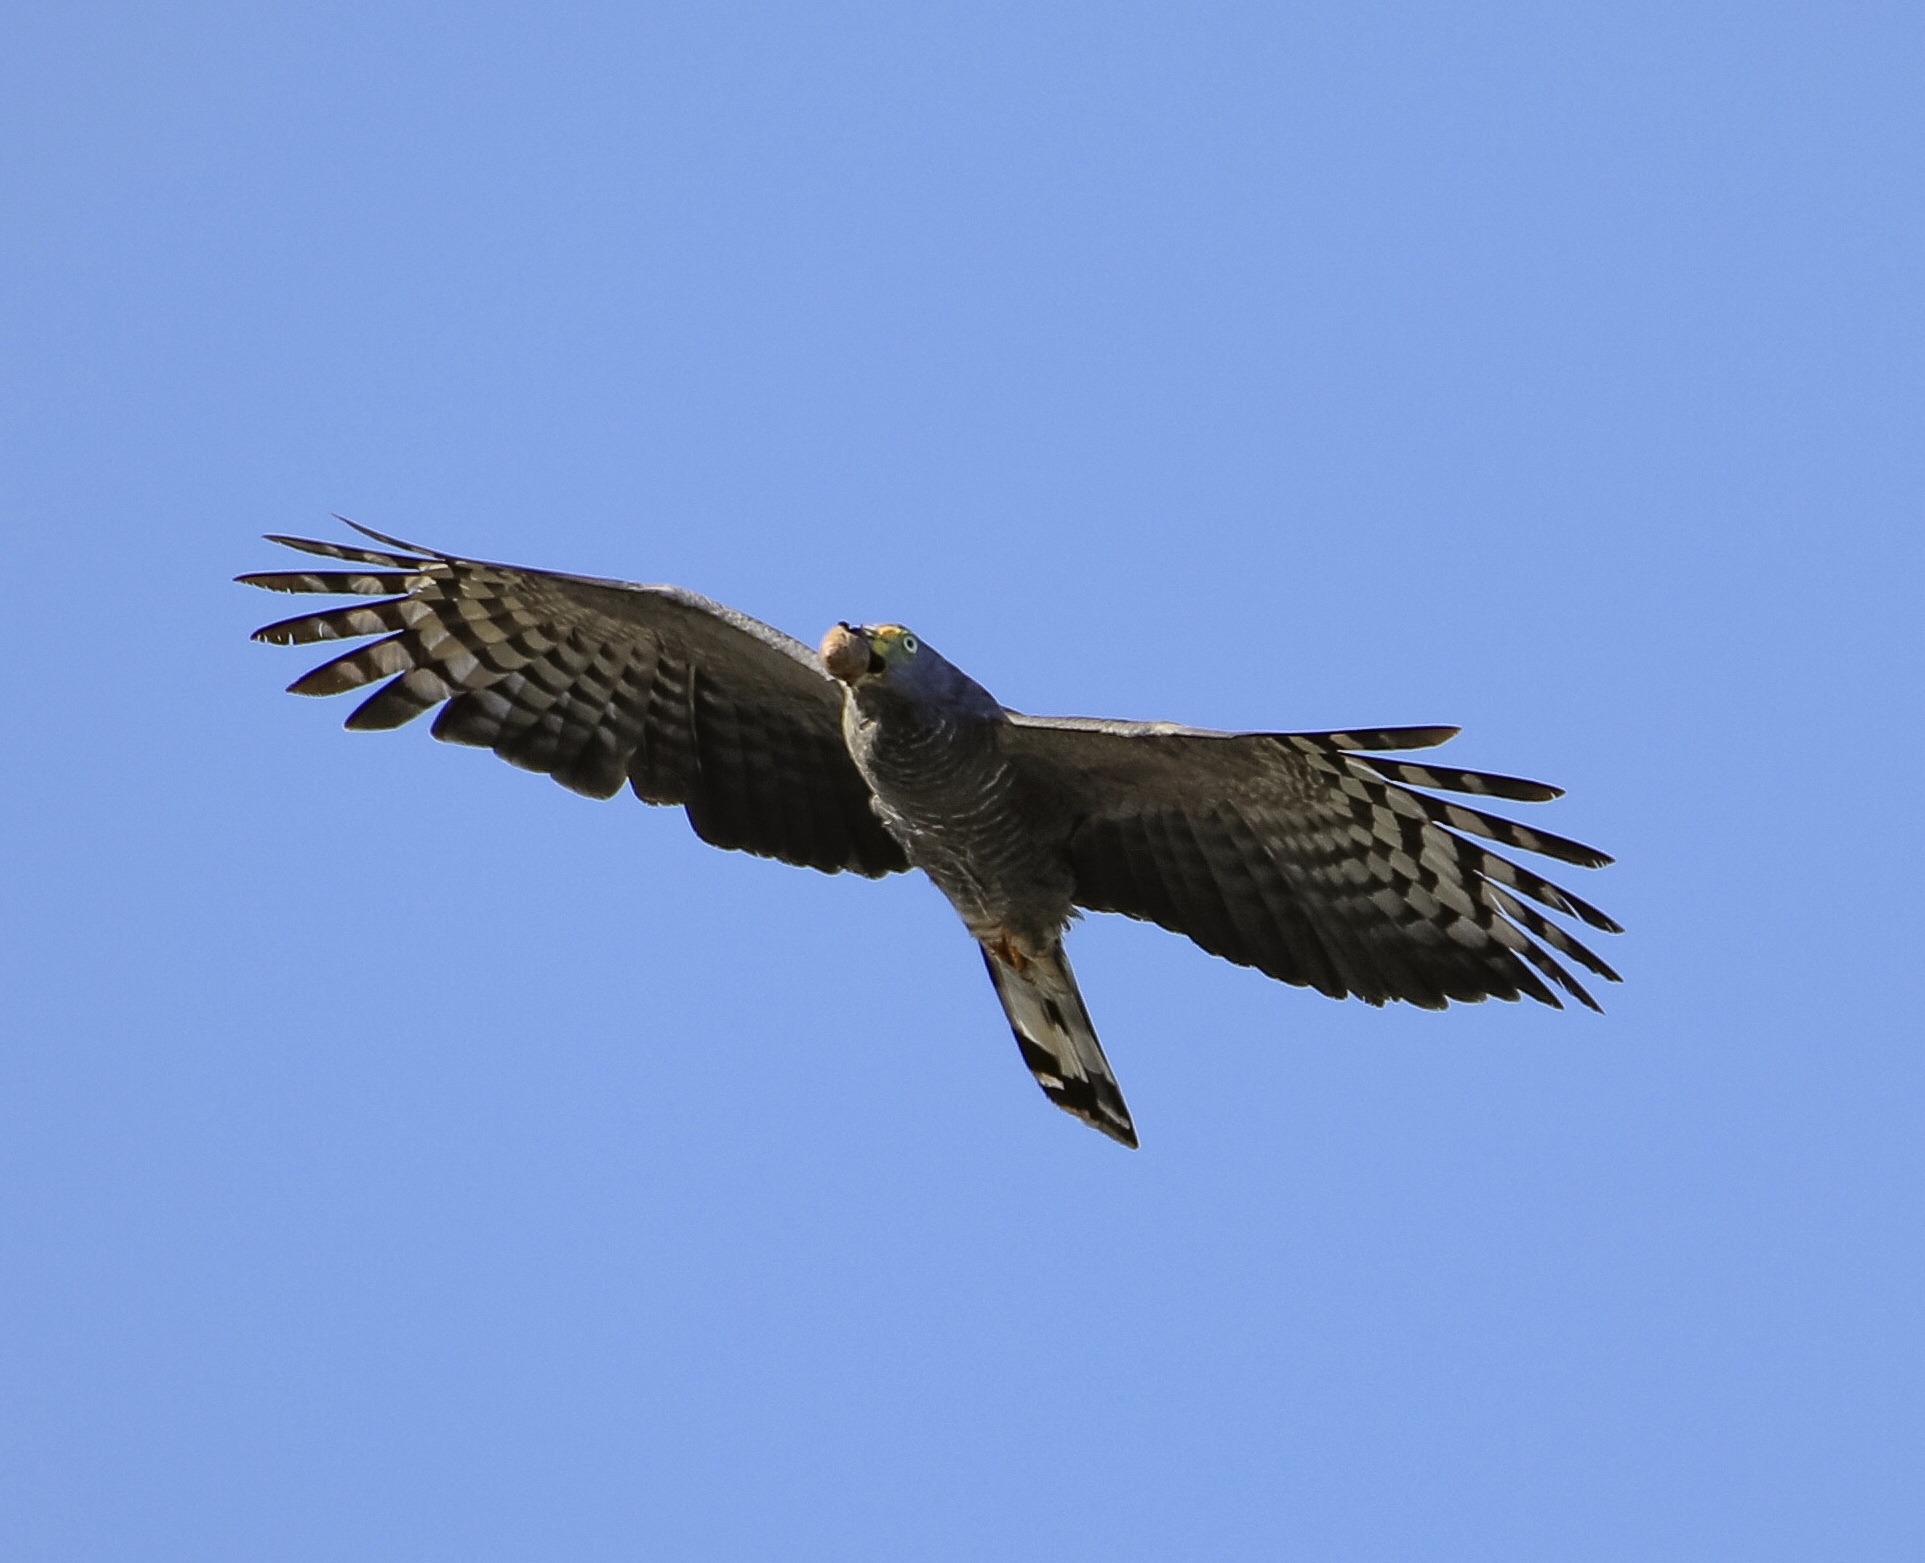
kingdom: Animalia
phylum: Chordata
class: Aves
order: Accipitriformes
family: Accipitridae
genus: Chondrohierax
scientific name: Chondrohierax uncinatus
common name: Hook-billed kite
